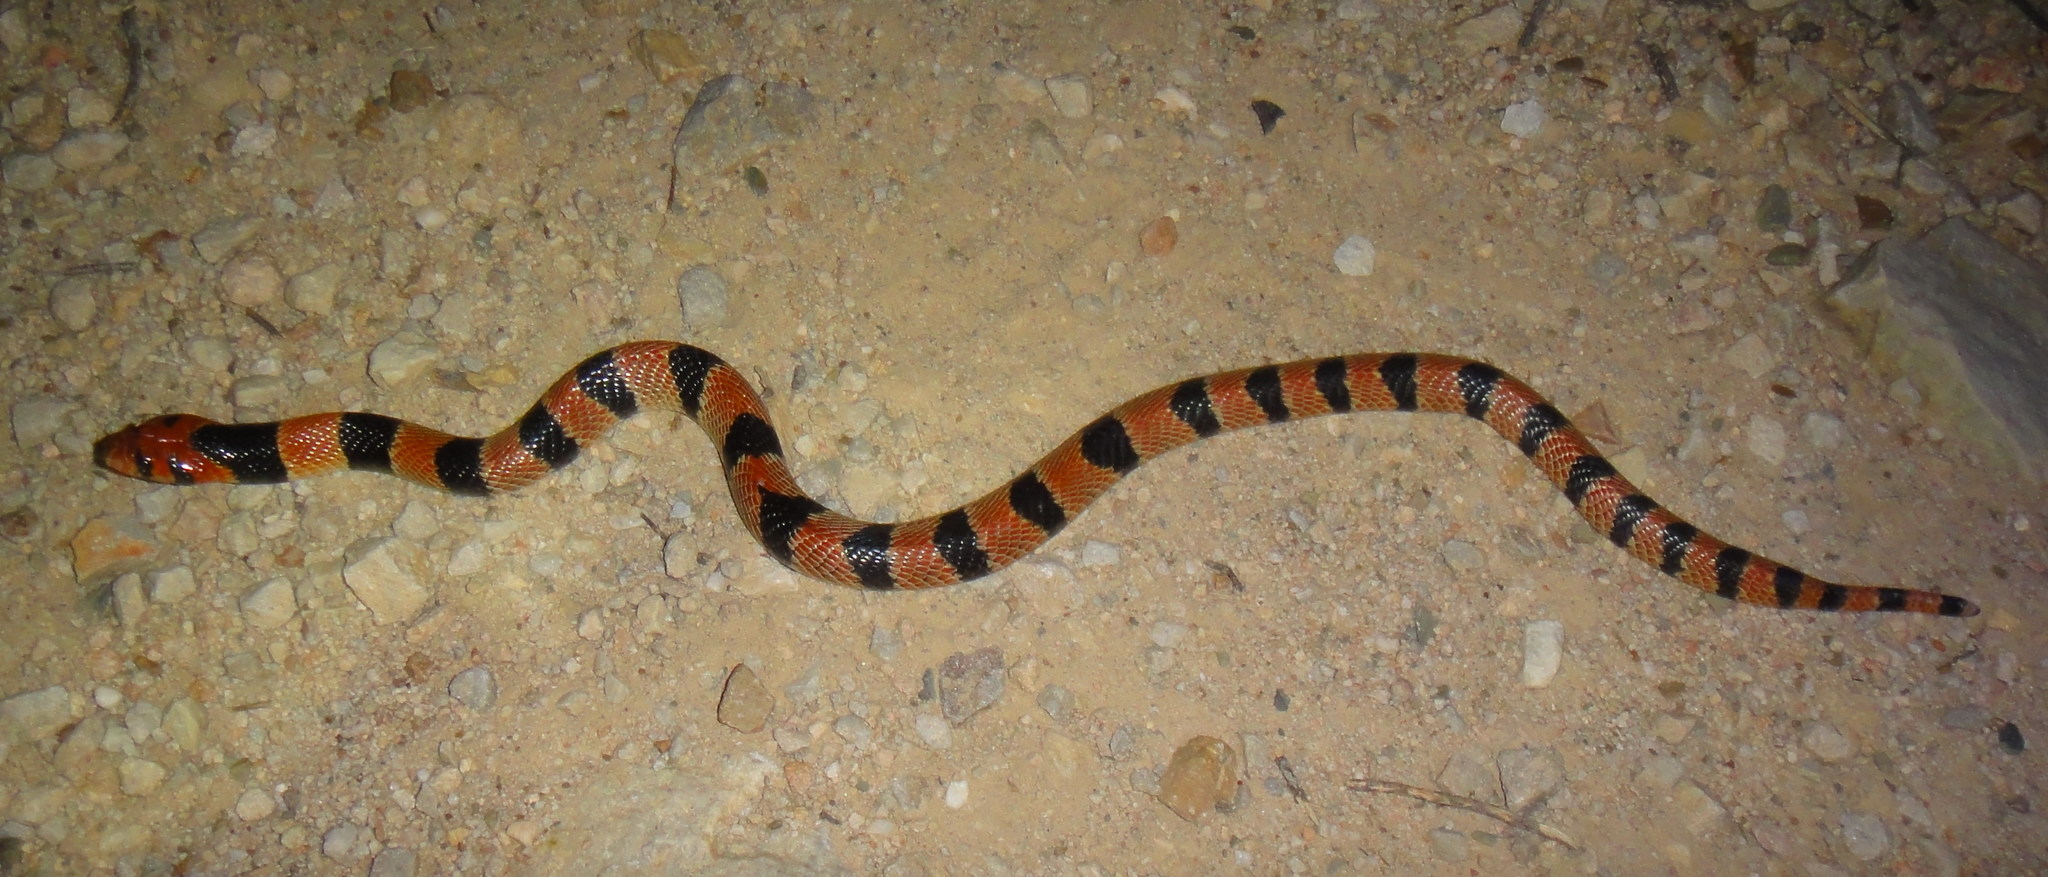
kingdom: Animalia
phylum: Chordata
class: Squamata
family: Elapidae
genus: Aspidelaps
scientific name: Aspidelaps lubricus
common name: Coral shield cobra
